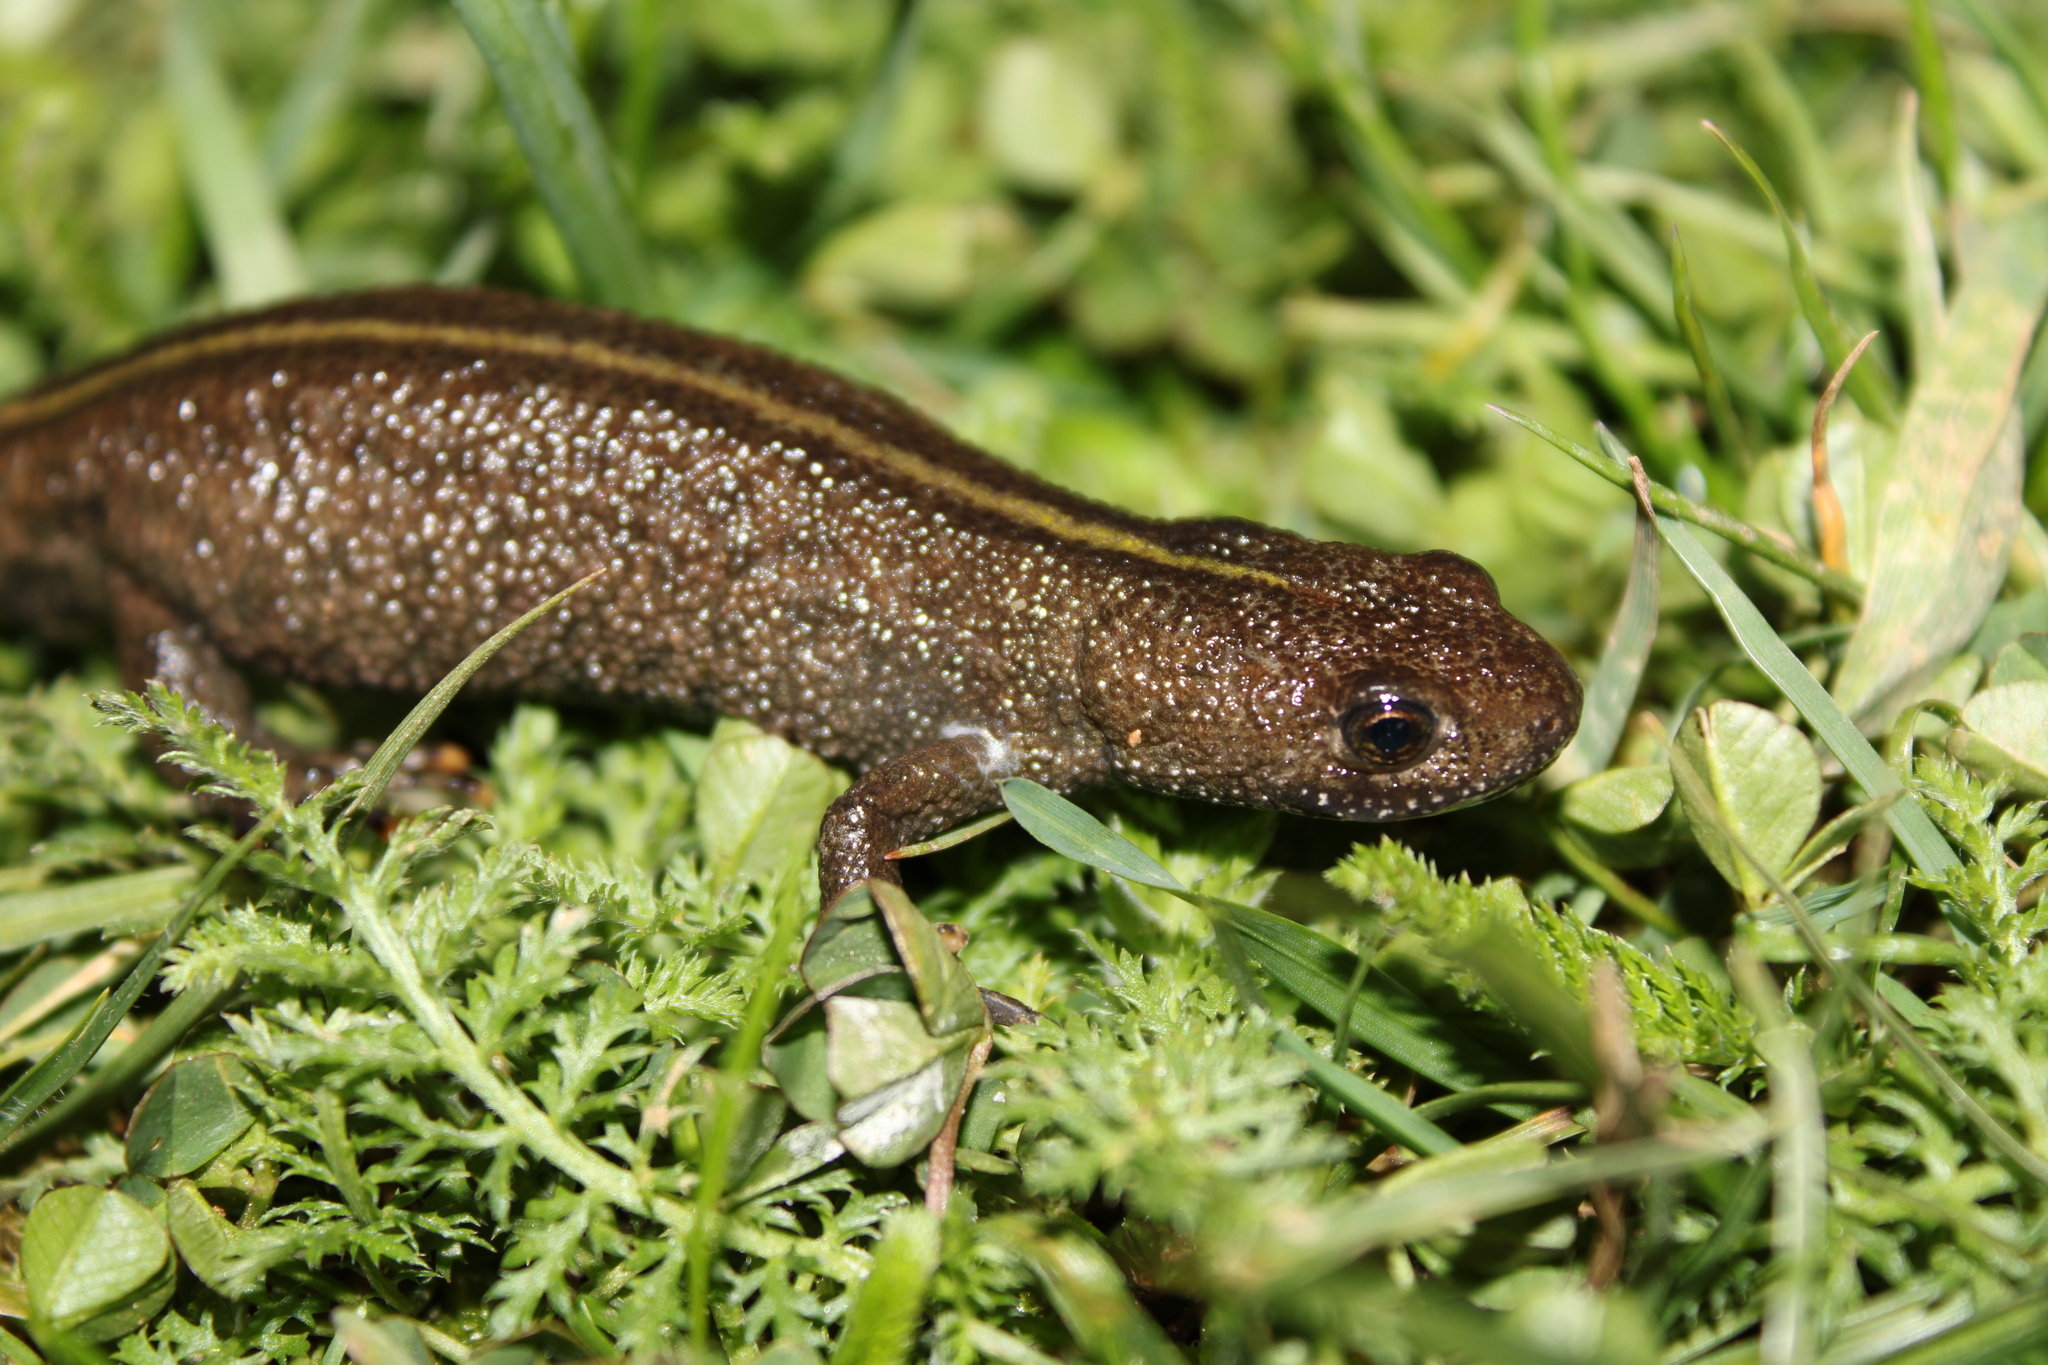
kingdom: Animalia
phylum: Chordata
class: Amphibia
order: Caudata
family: Salamandridae
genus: Triturus
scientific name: Triturus carnifex
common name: Italian crested newt
